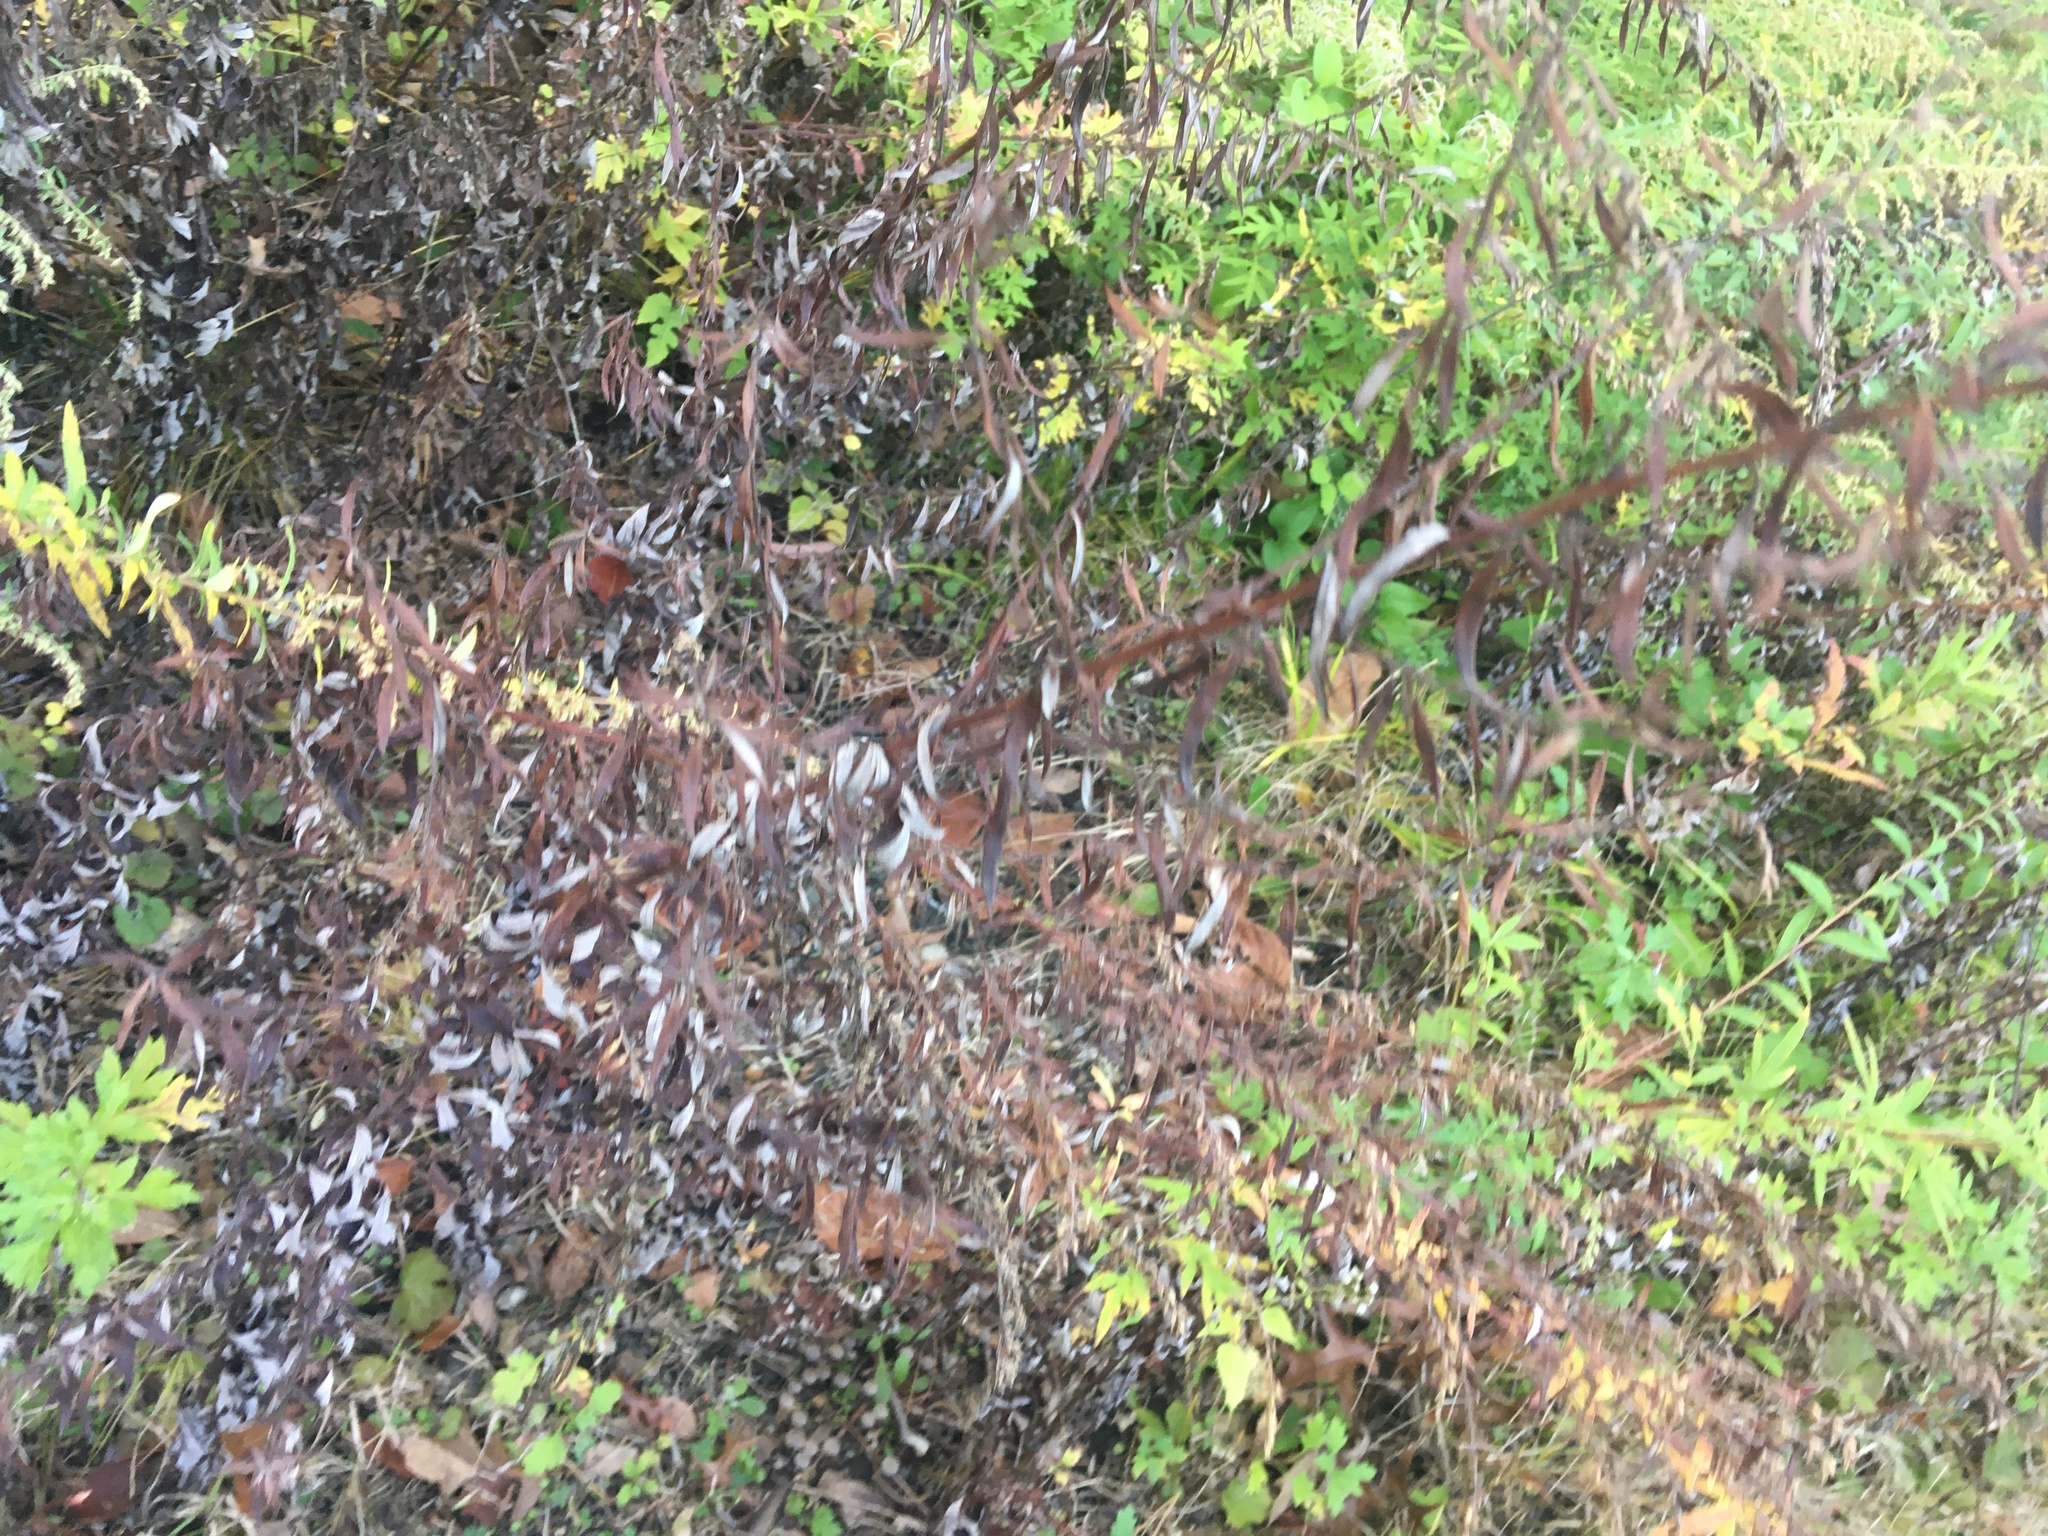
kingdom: Plantae
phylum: Tracheophyta
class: Magnoliopsida
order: Asterales
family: Asteraceae
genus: Artemisia
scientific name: Artemisia vulgaris
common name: Mugwort
